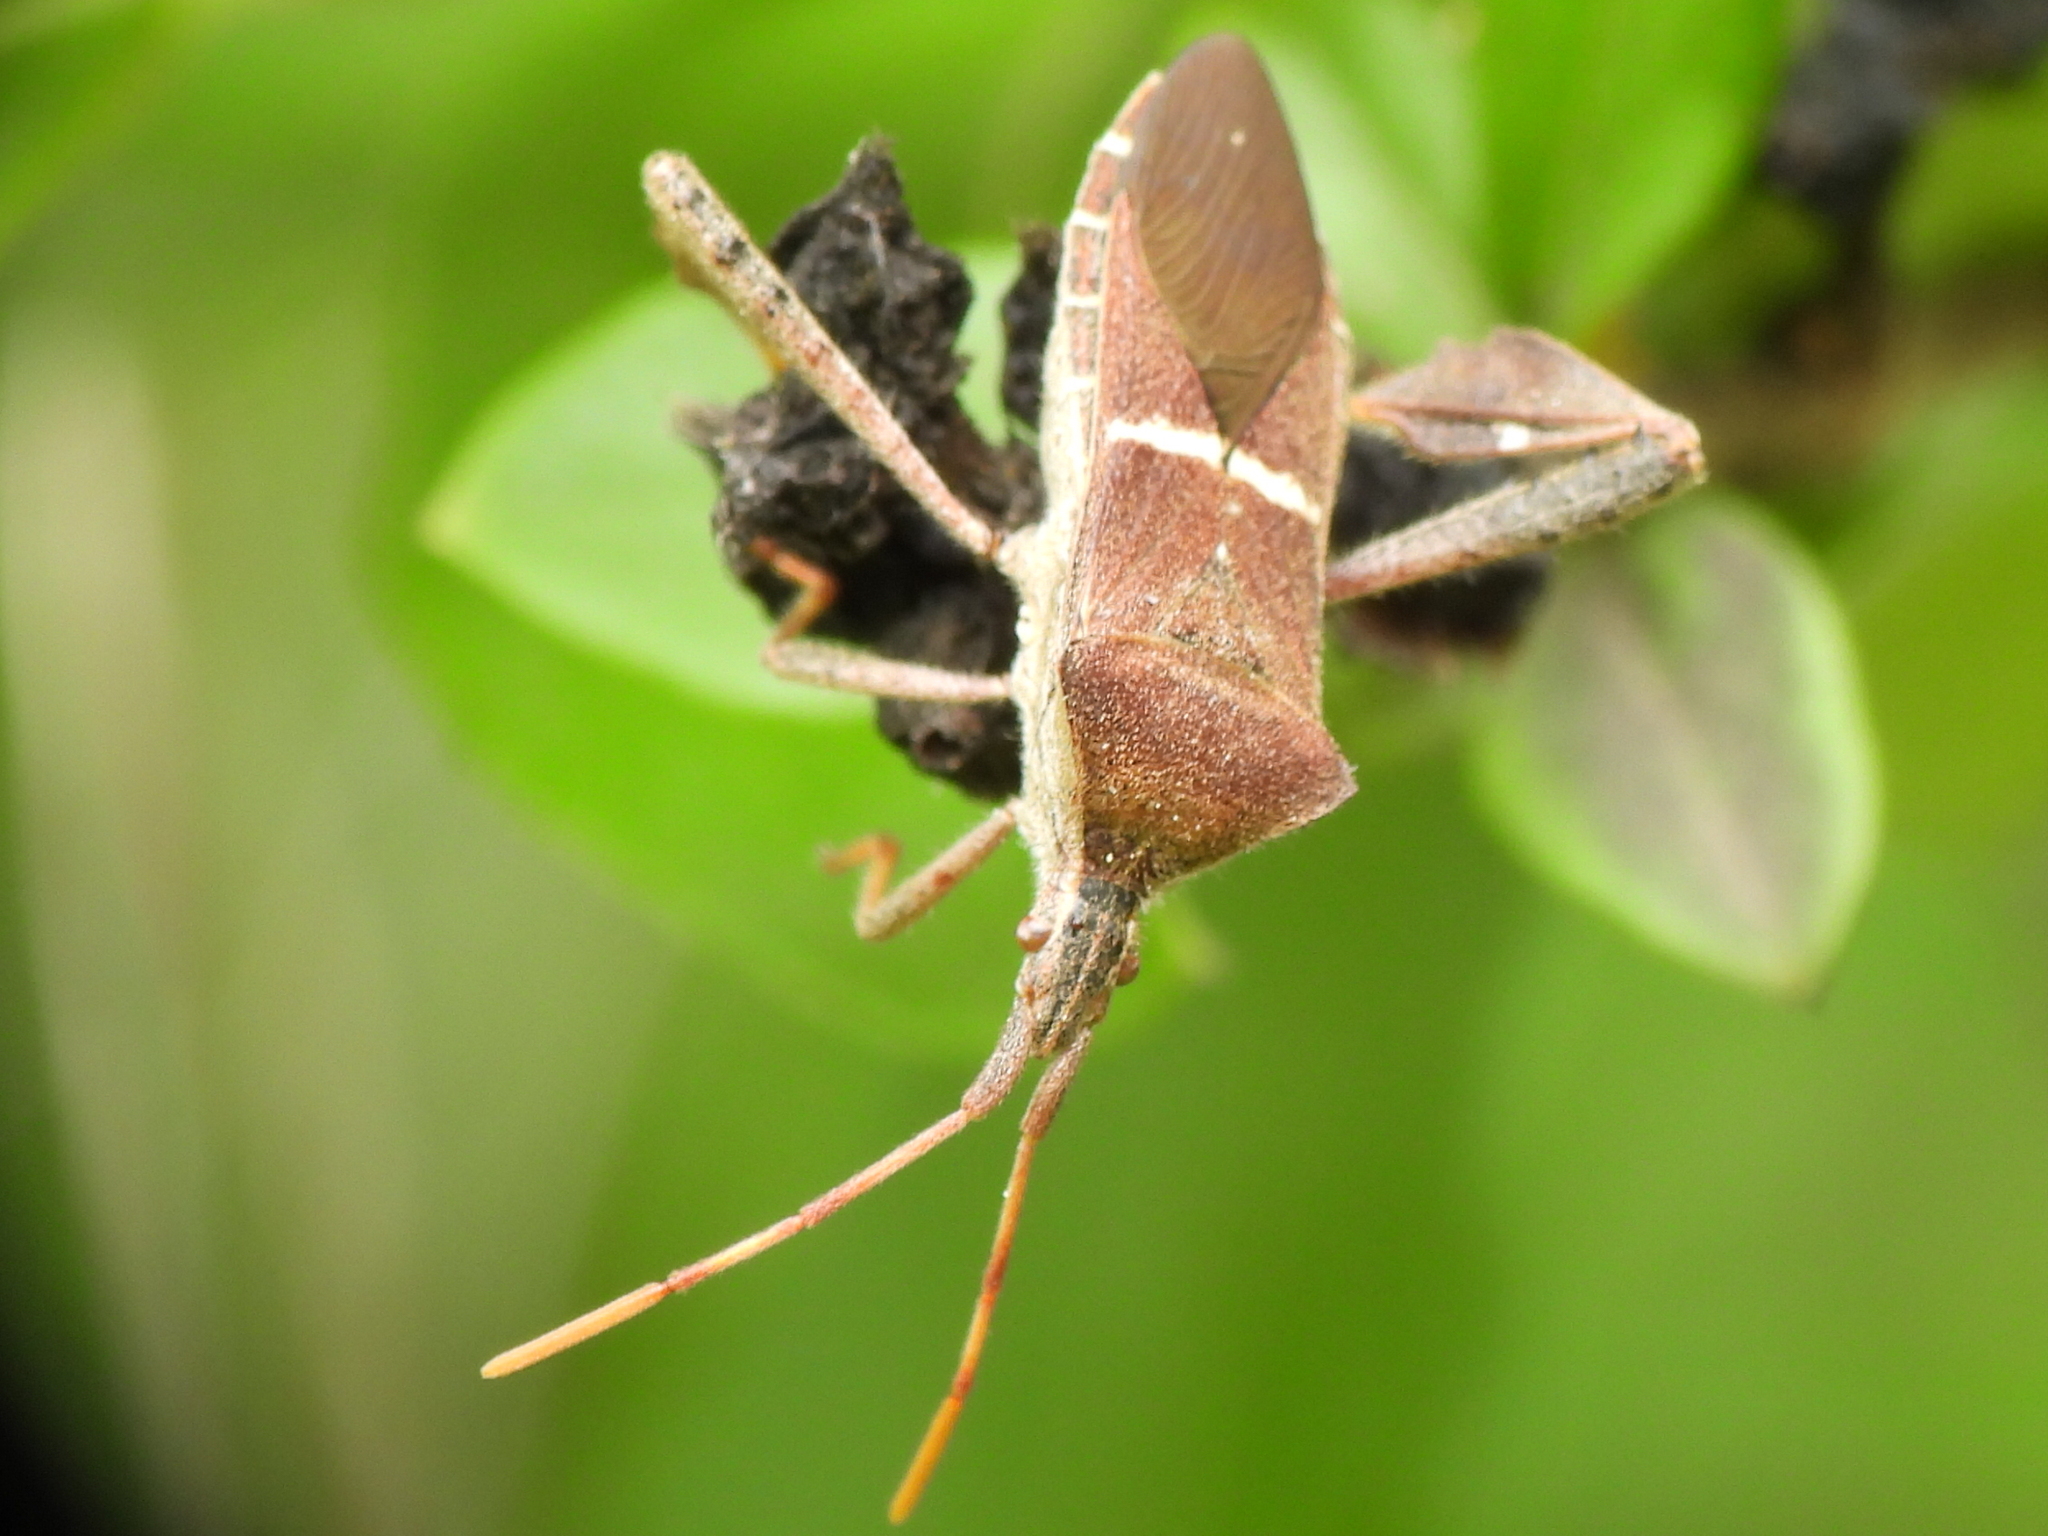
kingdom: Animalia
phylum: Arthropoda
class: Insecta
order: Hemiptera
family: Coreidae
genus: Leptoglossus
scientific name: Leptoglossus phyllopus
